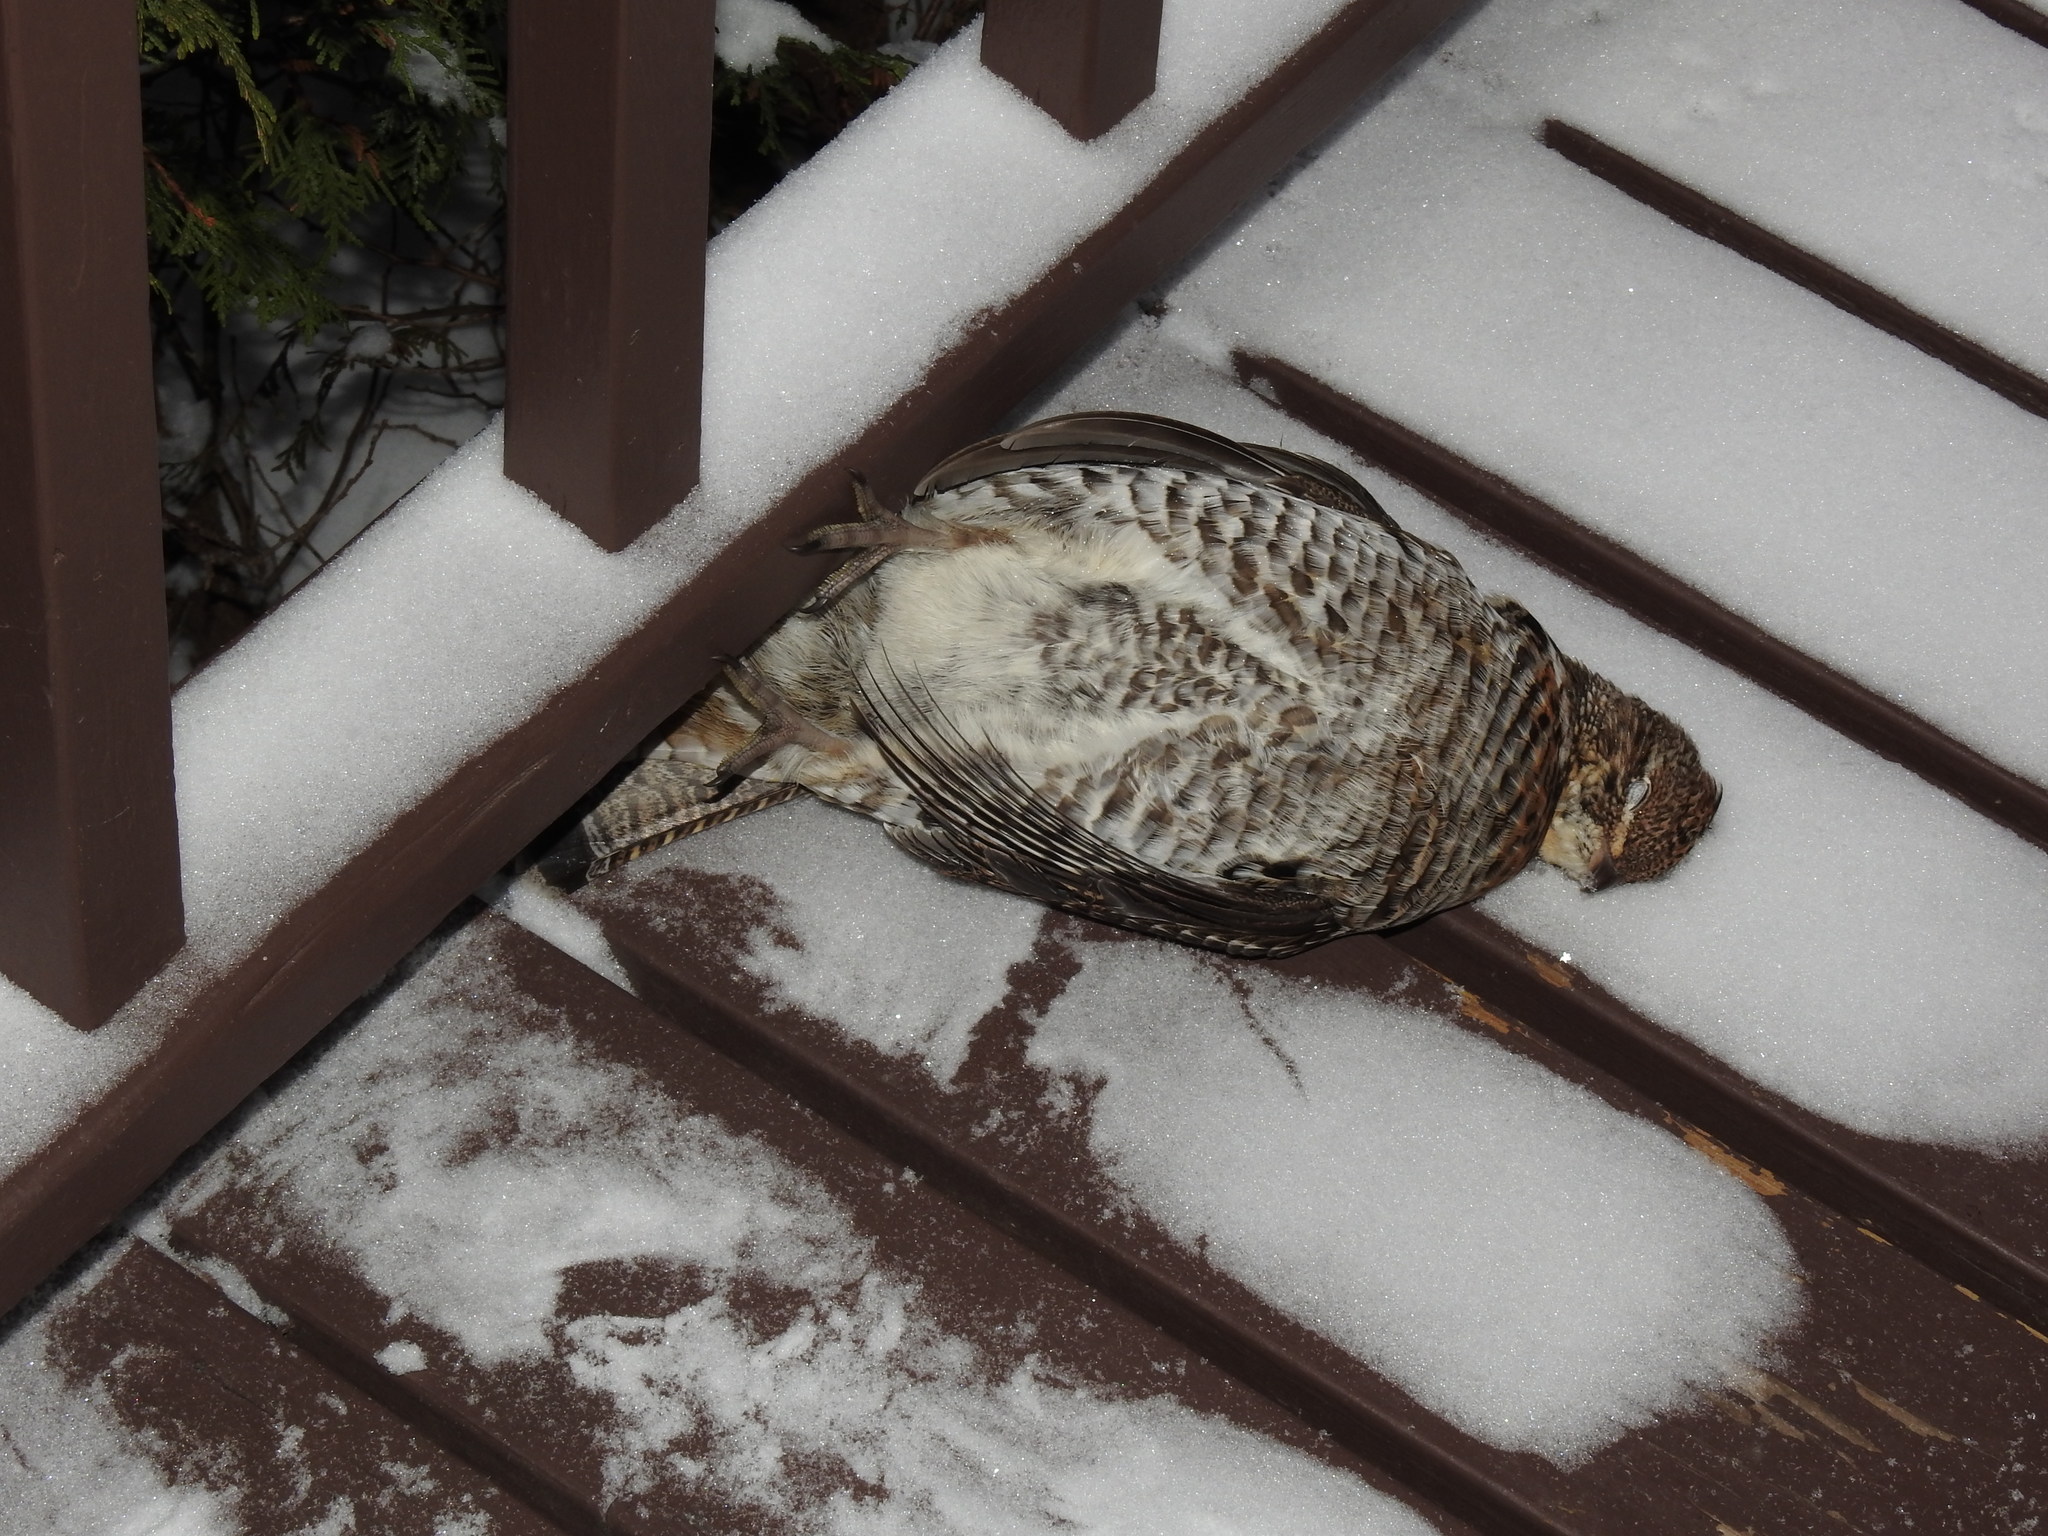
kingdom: Animalia
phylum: Chordata
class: Aves
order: Galliformes
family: Phasianidae
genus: Bonasa
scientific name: Bonasa umbellus
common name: Ruffed grouse
